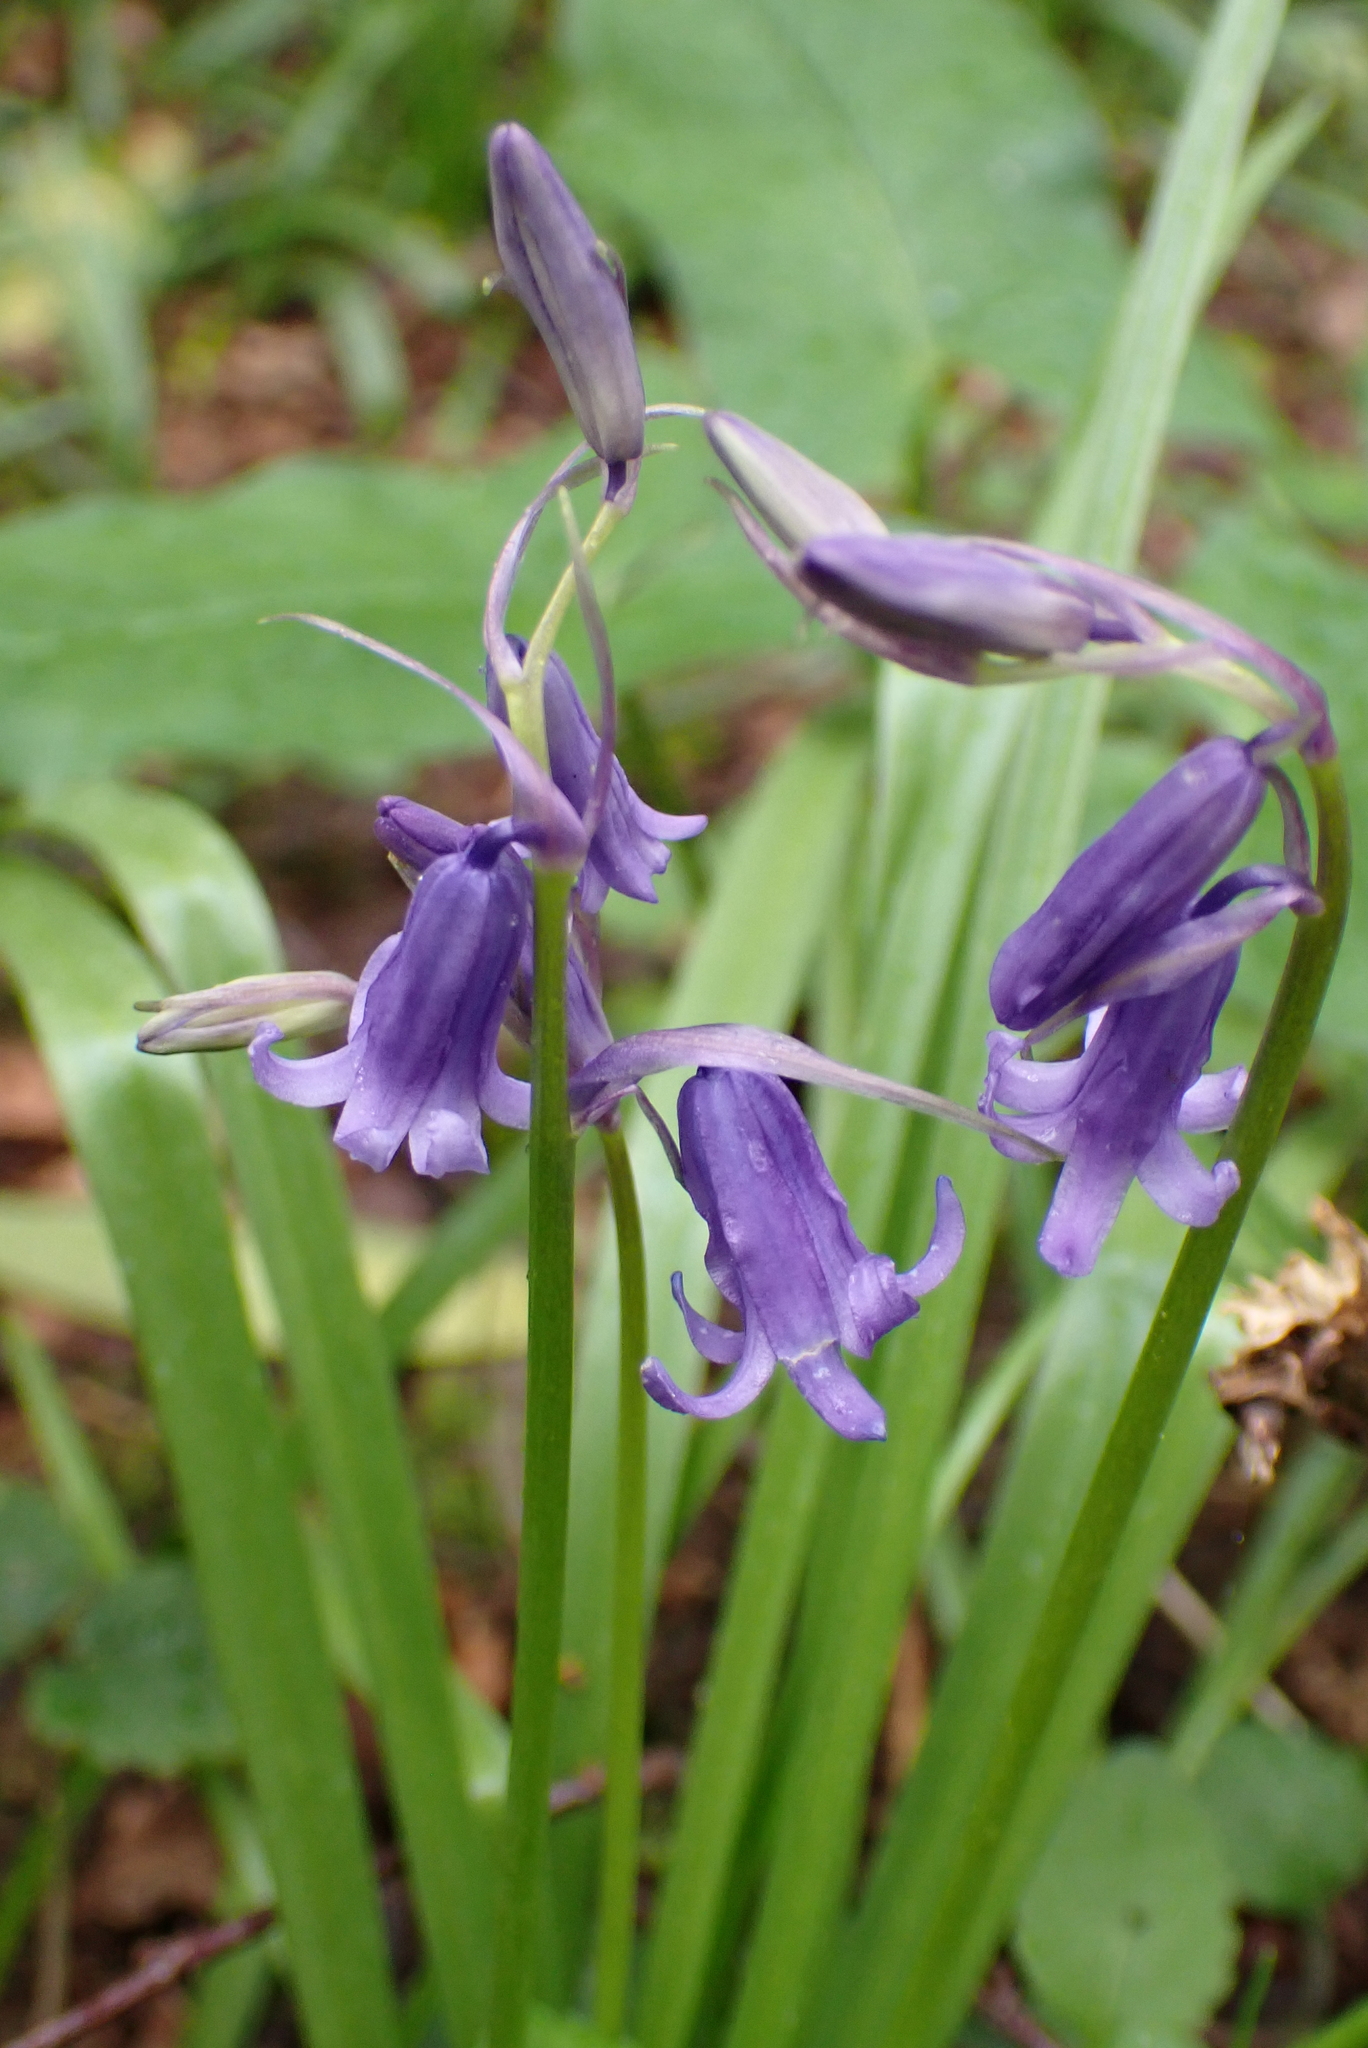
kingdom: Plantae
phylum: Tracheophyta
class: Liliopsida
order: Asparagales
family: Asparagaceae
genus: Hyacinthoides
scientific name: Hyacinthoides non-scripta
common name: Bluebell
